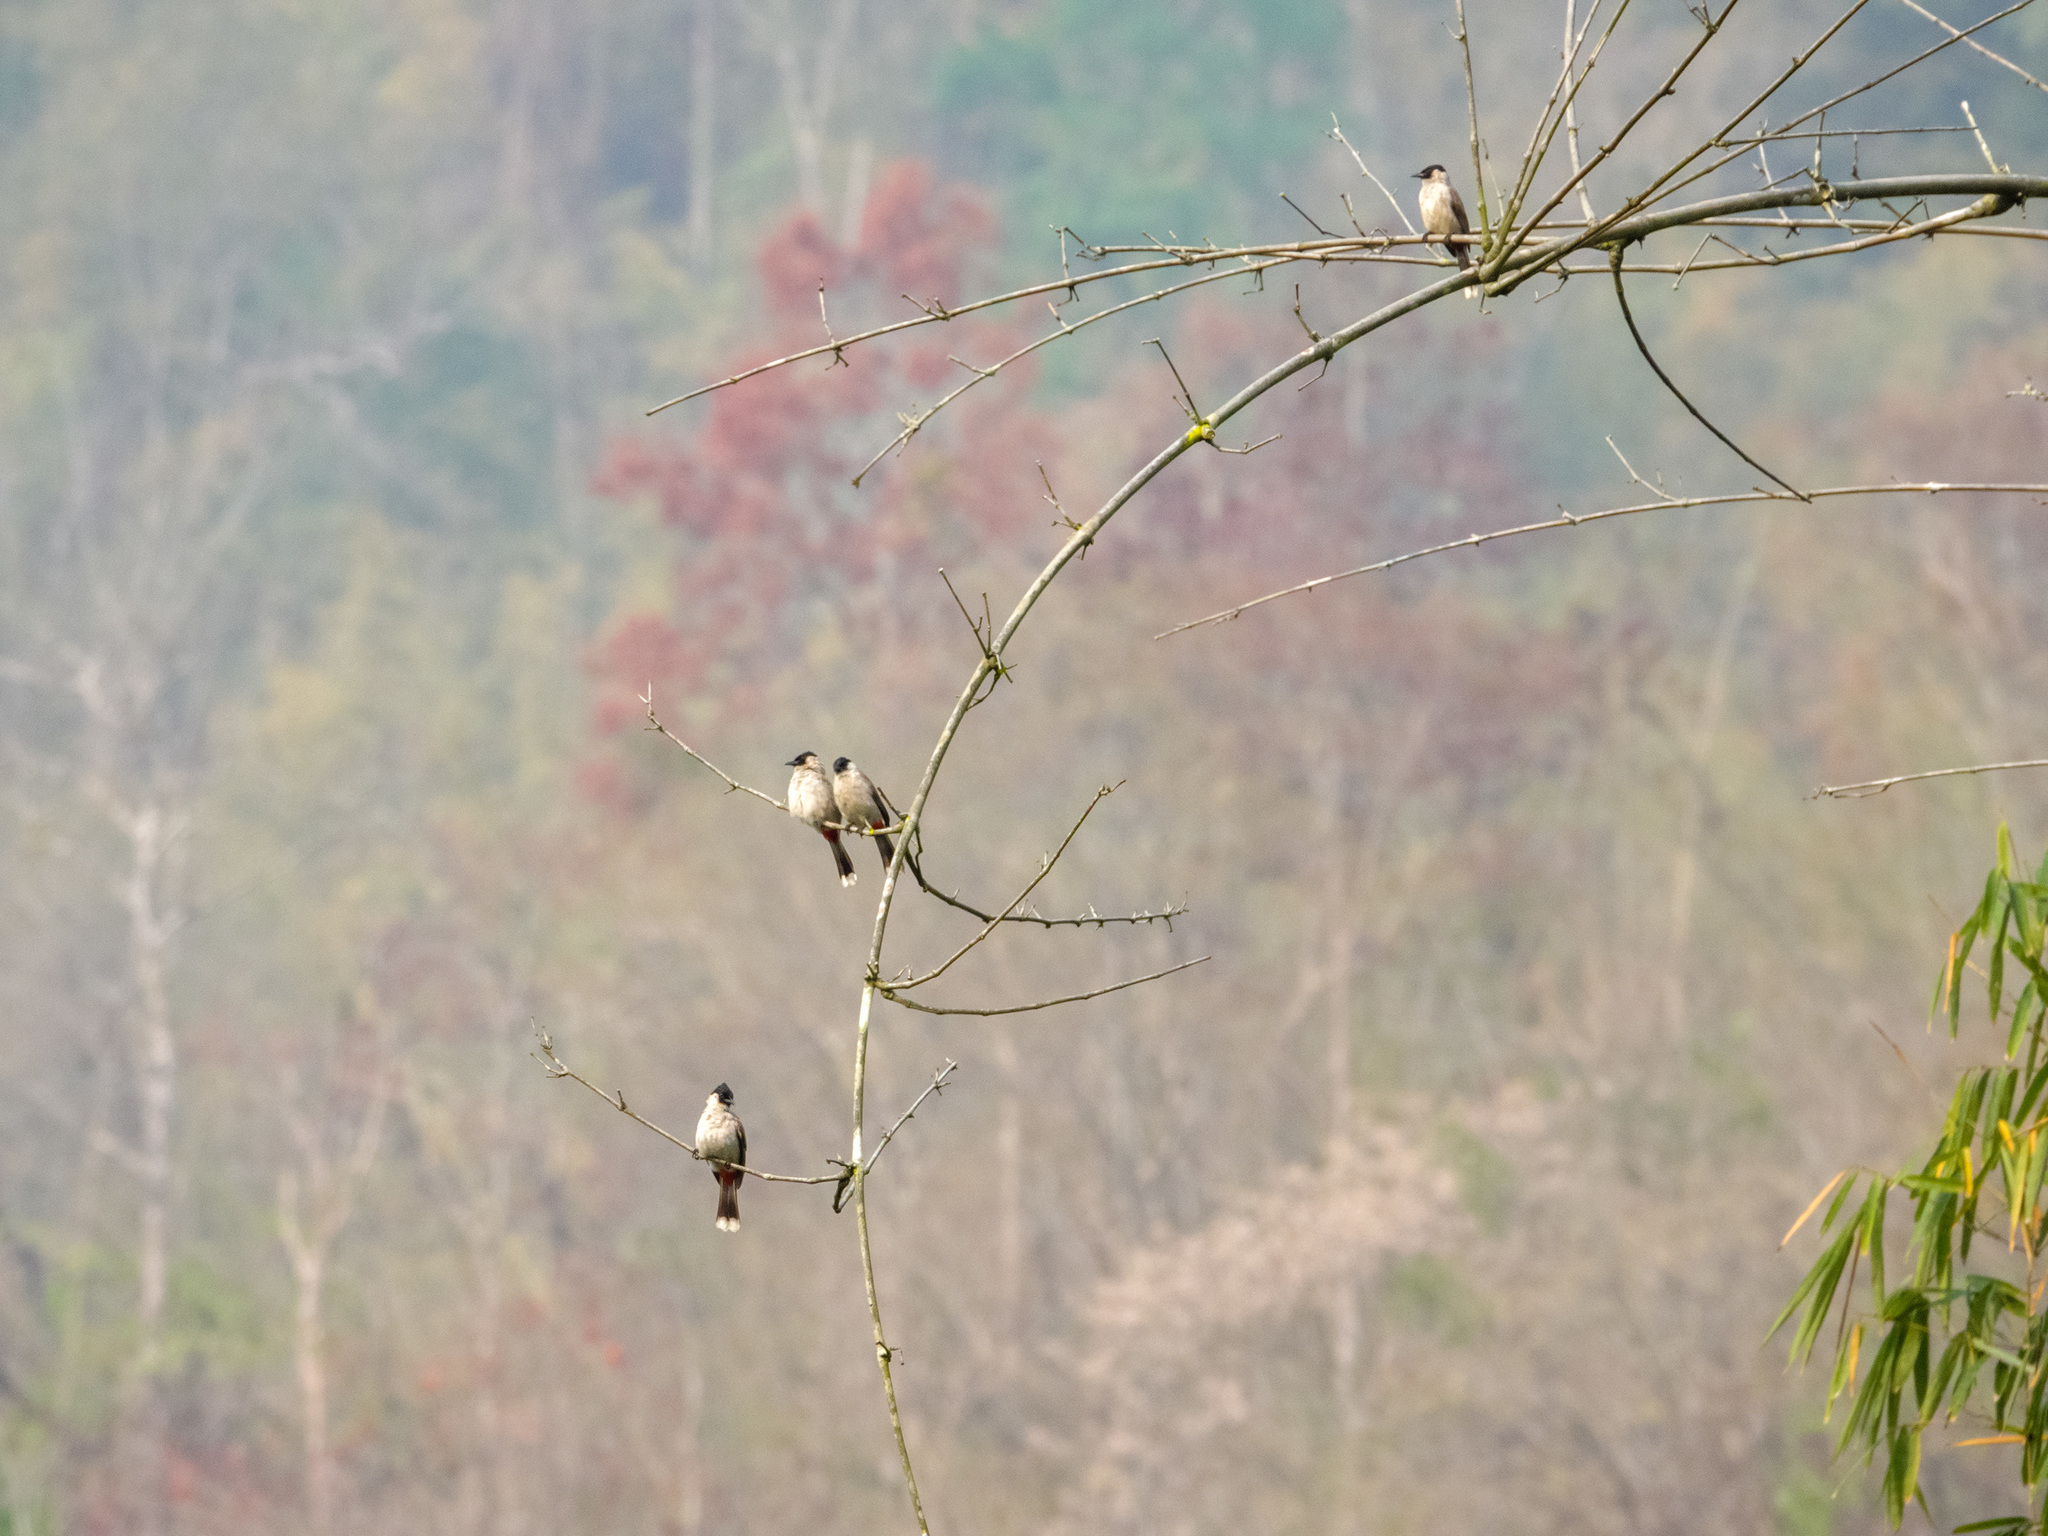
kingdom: Animalia
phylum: Chordata
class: Aves
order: Passeriformes
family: Pycnonotidae
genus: Pycnonotus
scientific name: Pycnonotus aurigaster
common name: Sooty-headed bulbul
